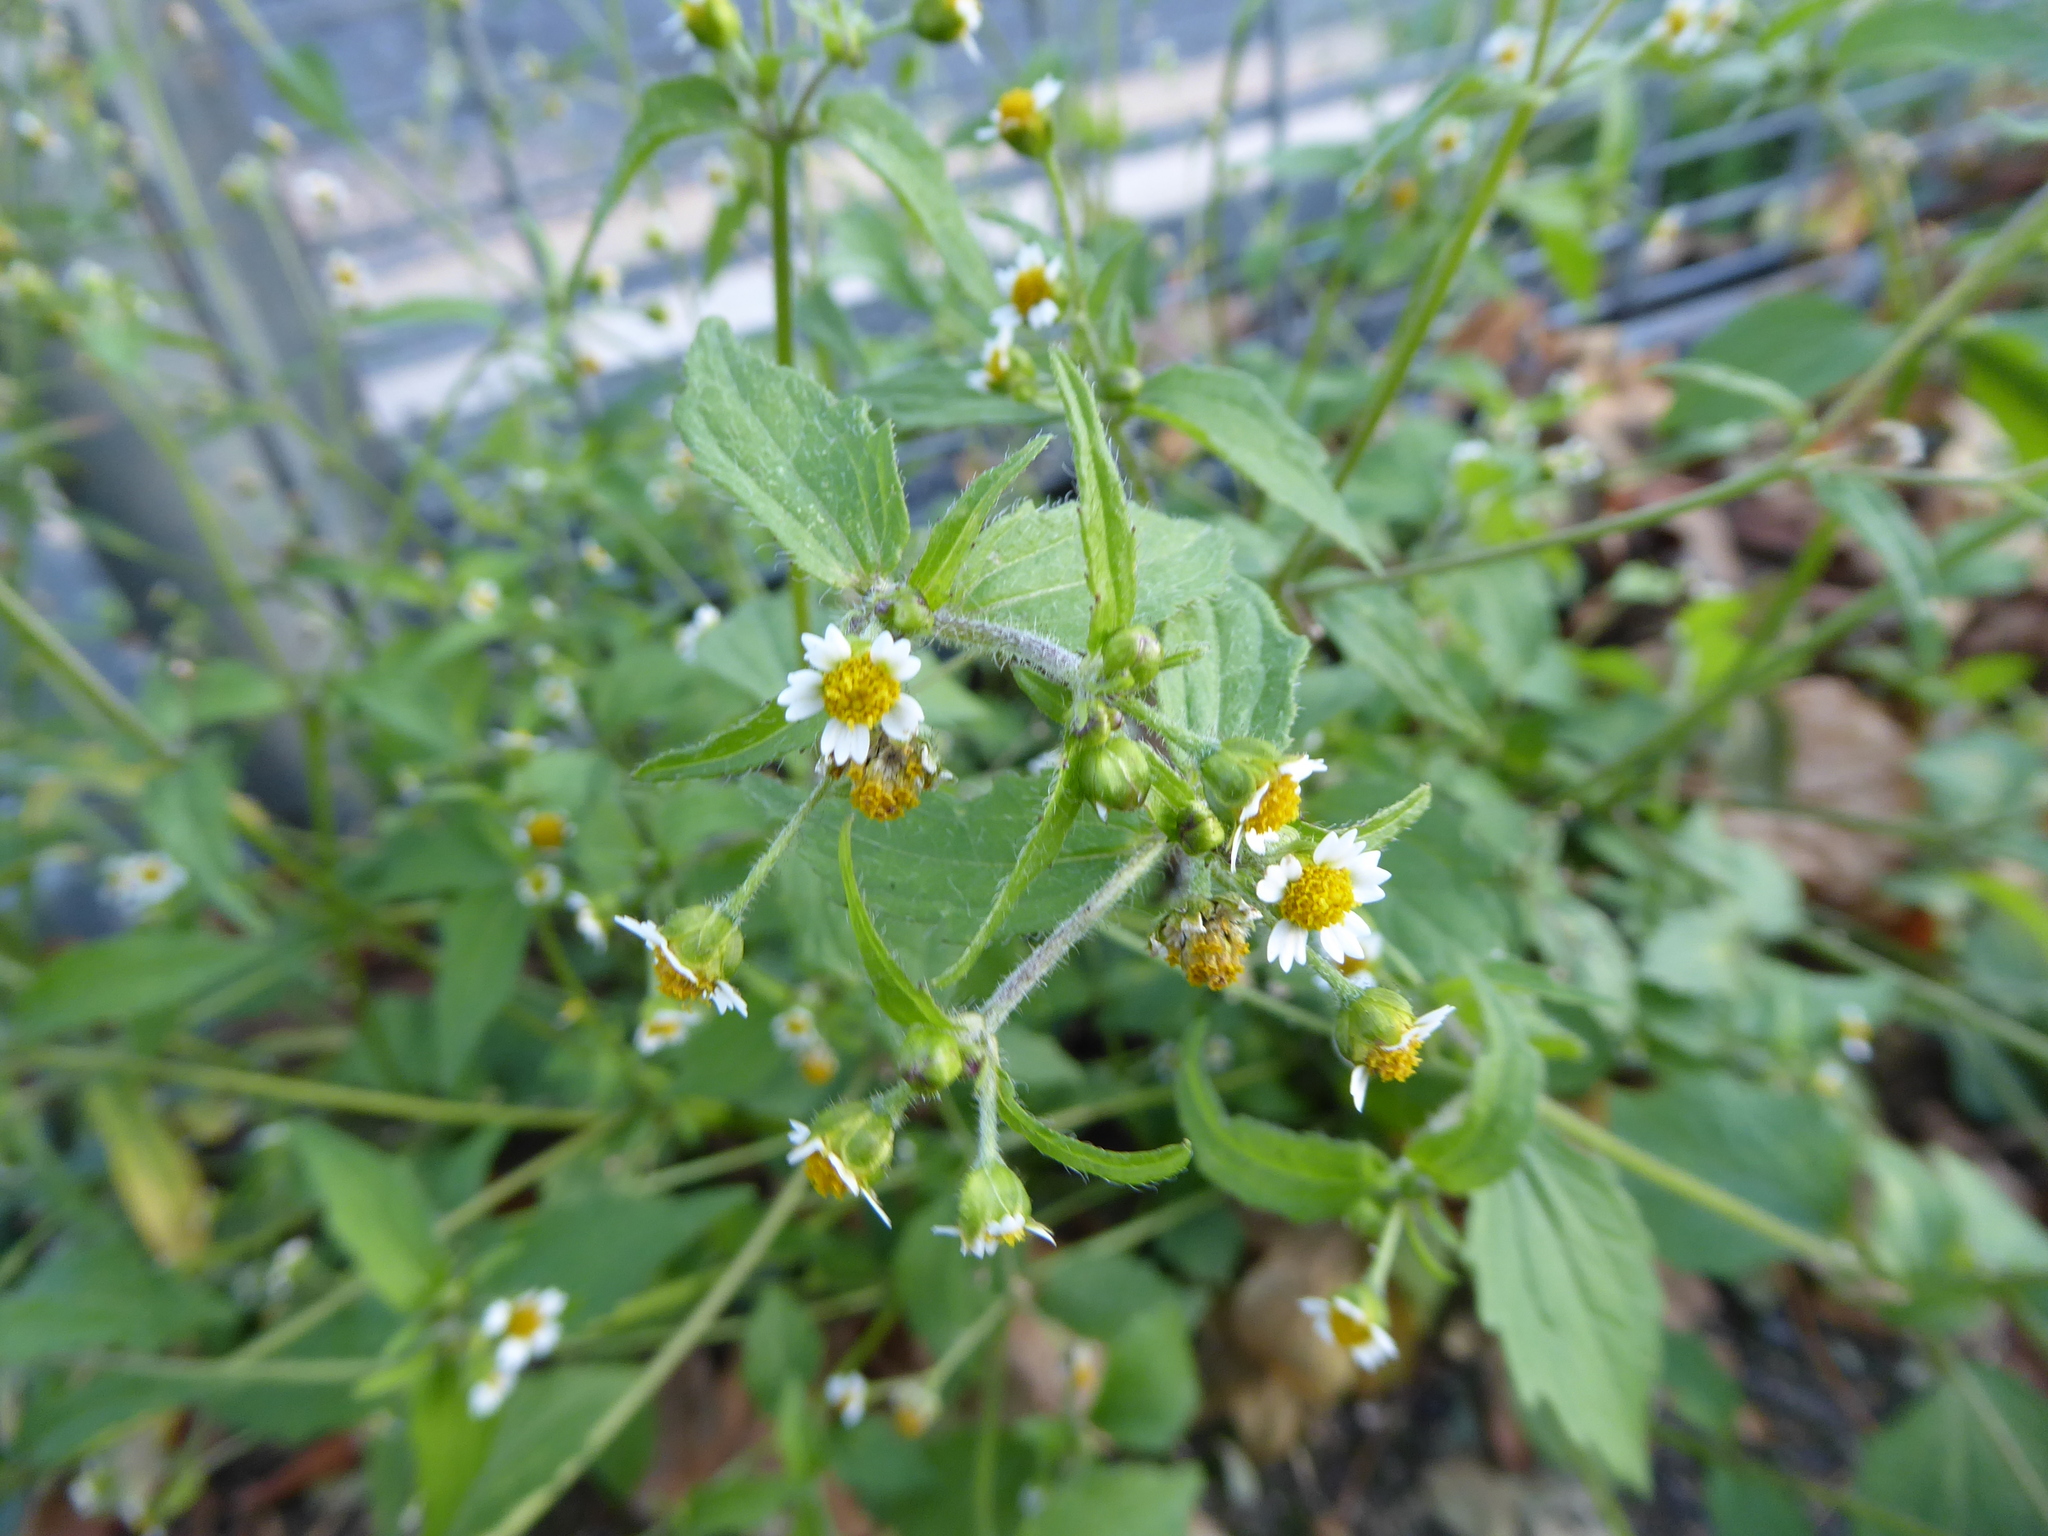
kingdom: Plantae
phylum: Tracheophyta
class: Magnoliopsida
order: Asterales
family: Asteraceae
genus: Galinsoga
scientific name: Galinsoga quadriradiata
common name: Shaggy soldier
